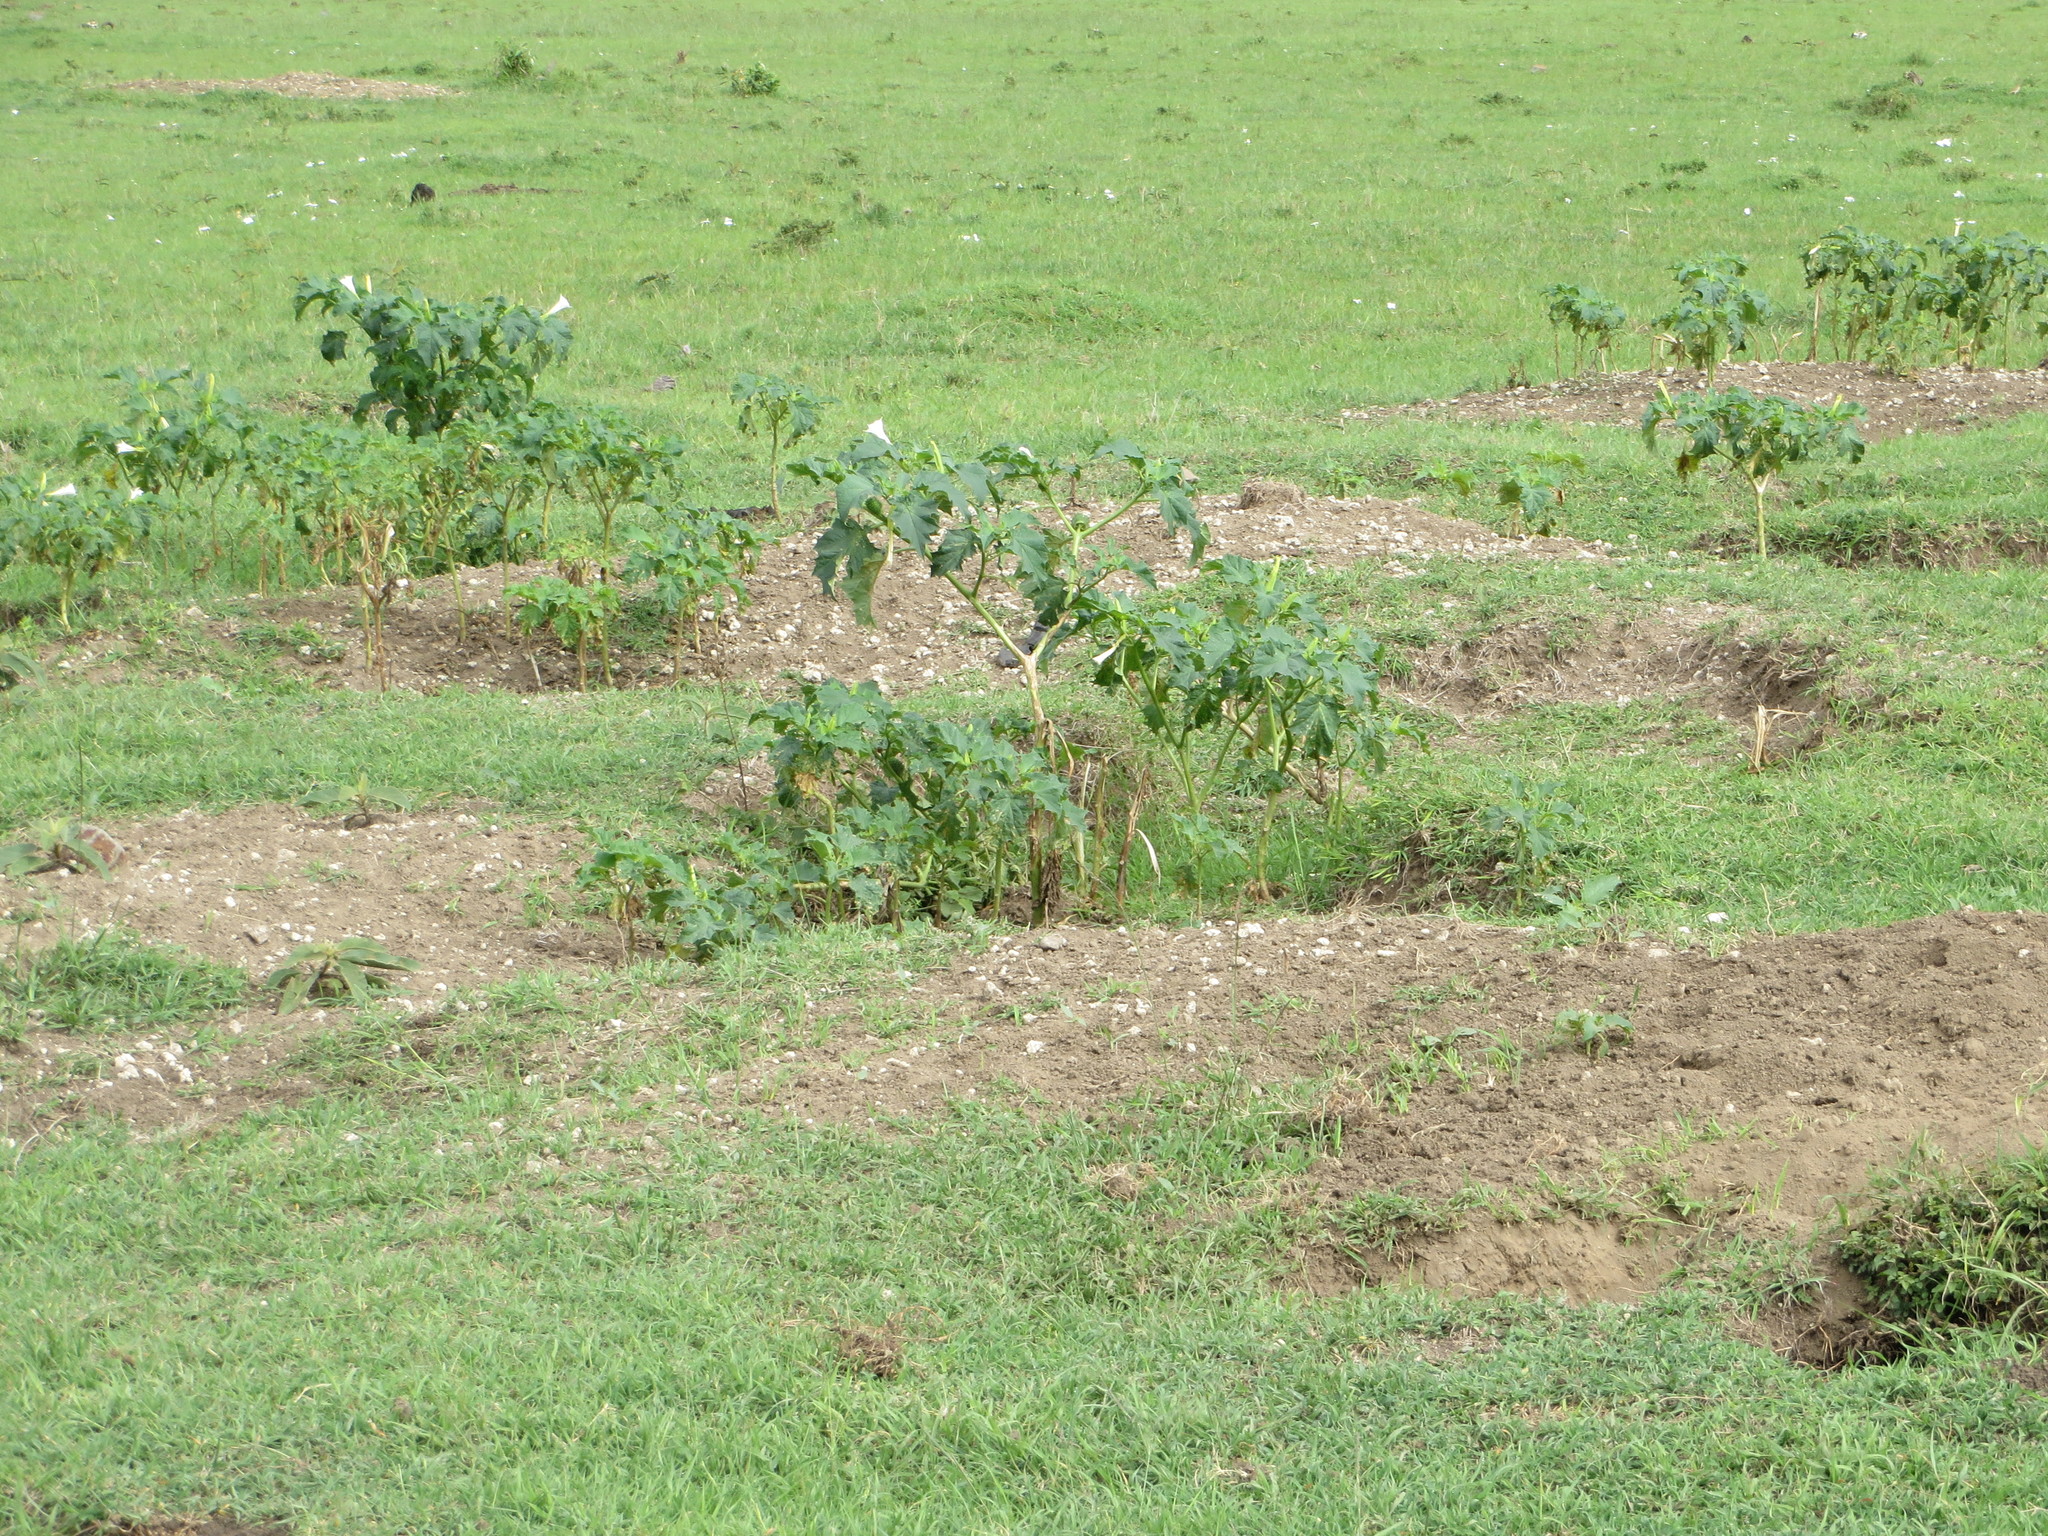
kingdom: Plantae
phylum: Tracheophyta
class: Magnoliopsida
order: Solanales
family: Solanaceae
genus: Datura
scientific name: Datura stramonium
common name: Thorn-apple
